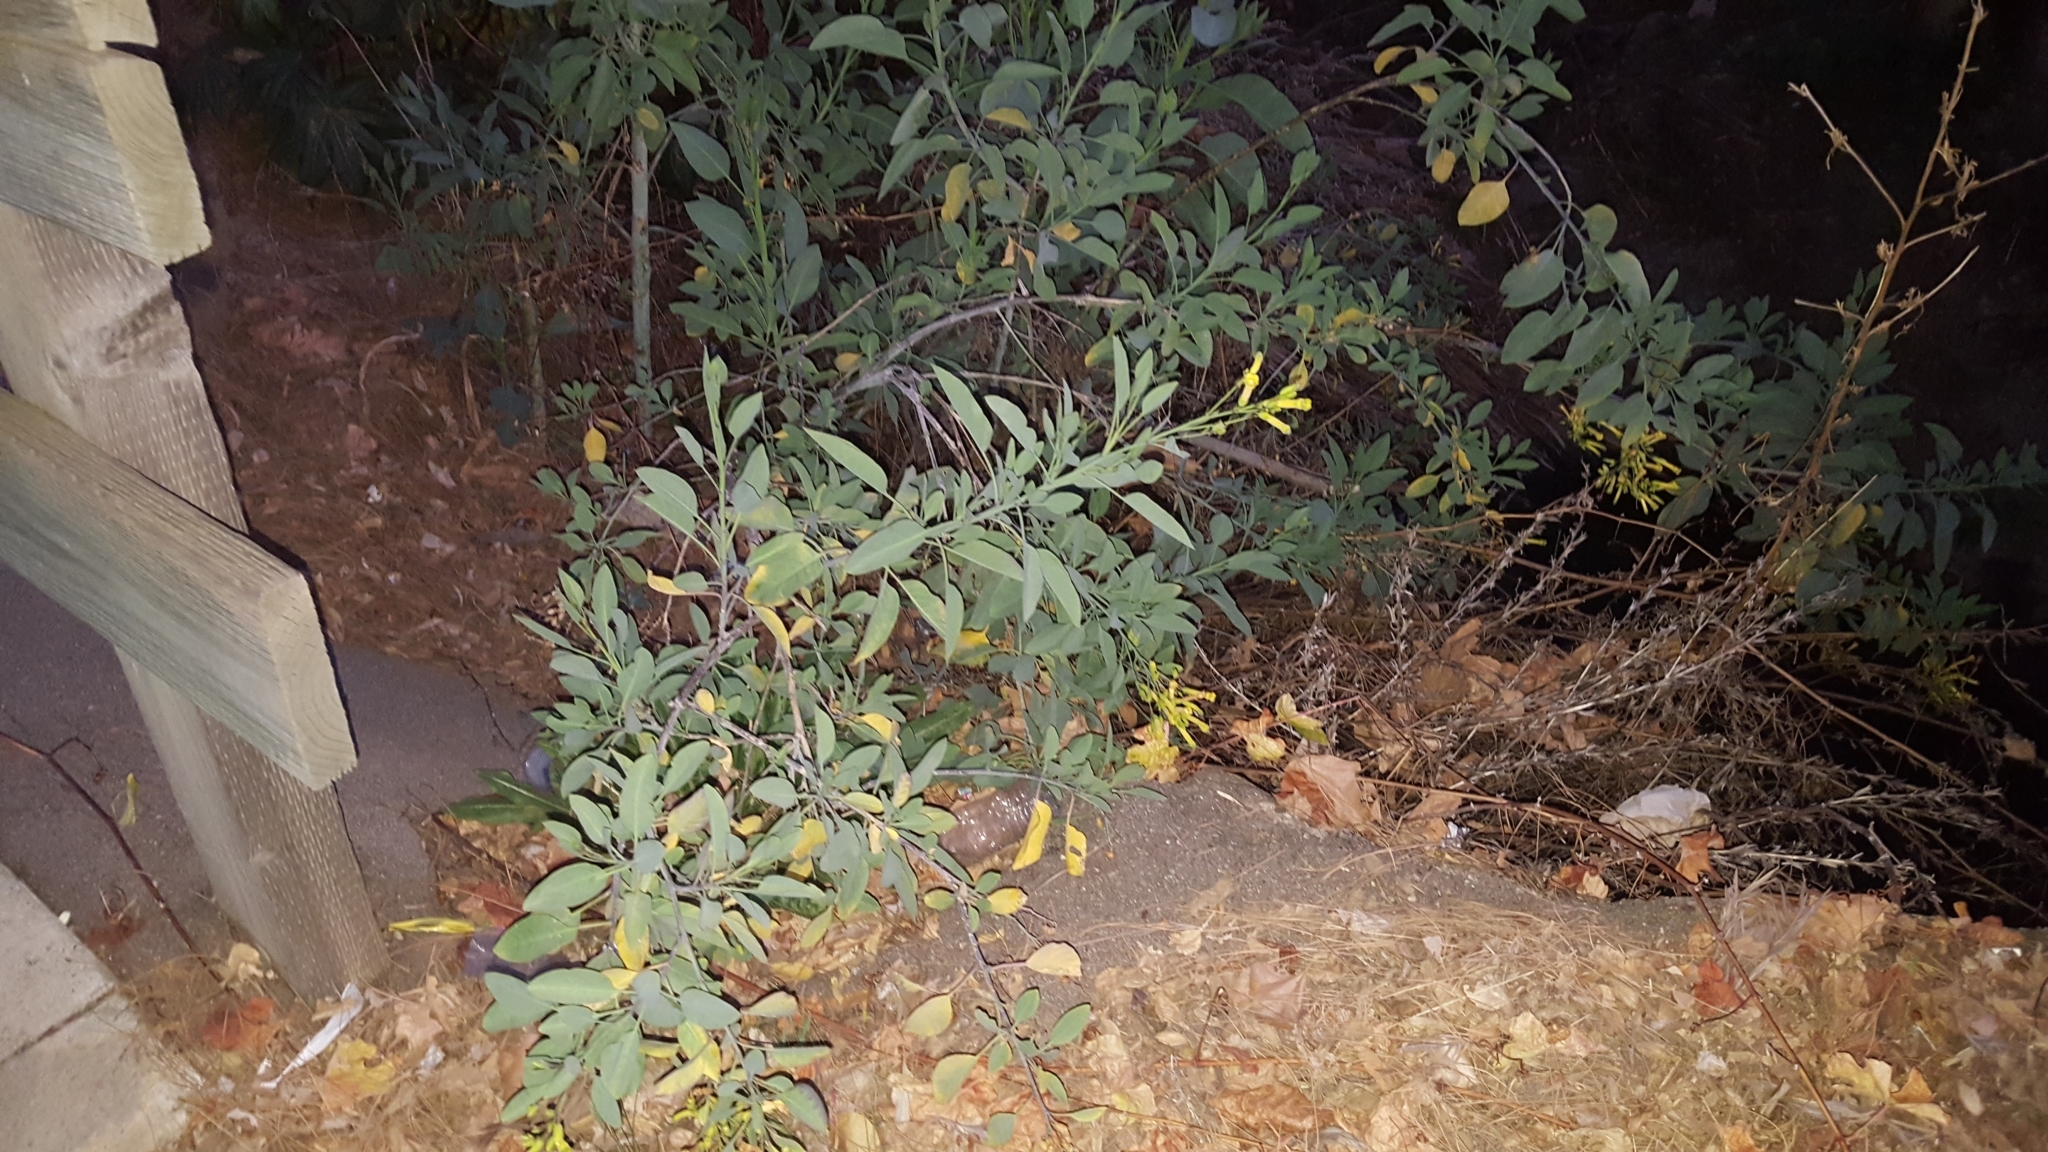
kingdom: Plantae
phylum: Tracheophyta
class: Magnoliopsida
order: Solanales
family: Solanaceae
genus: Nicotiana
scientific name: Nicotiana glauca
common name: Tree tobacco
